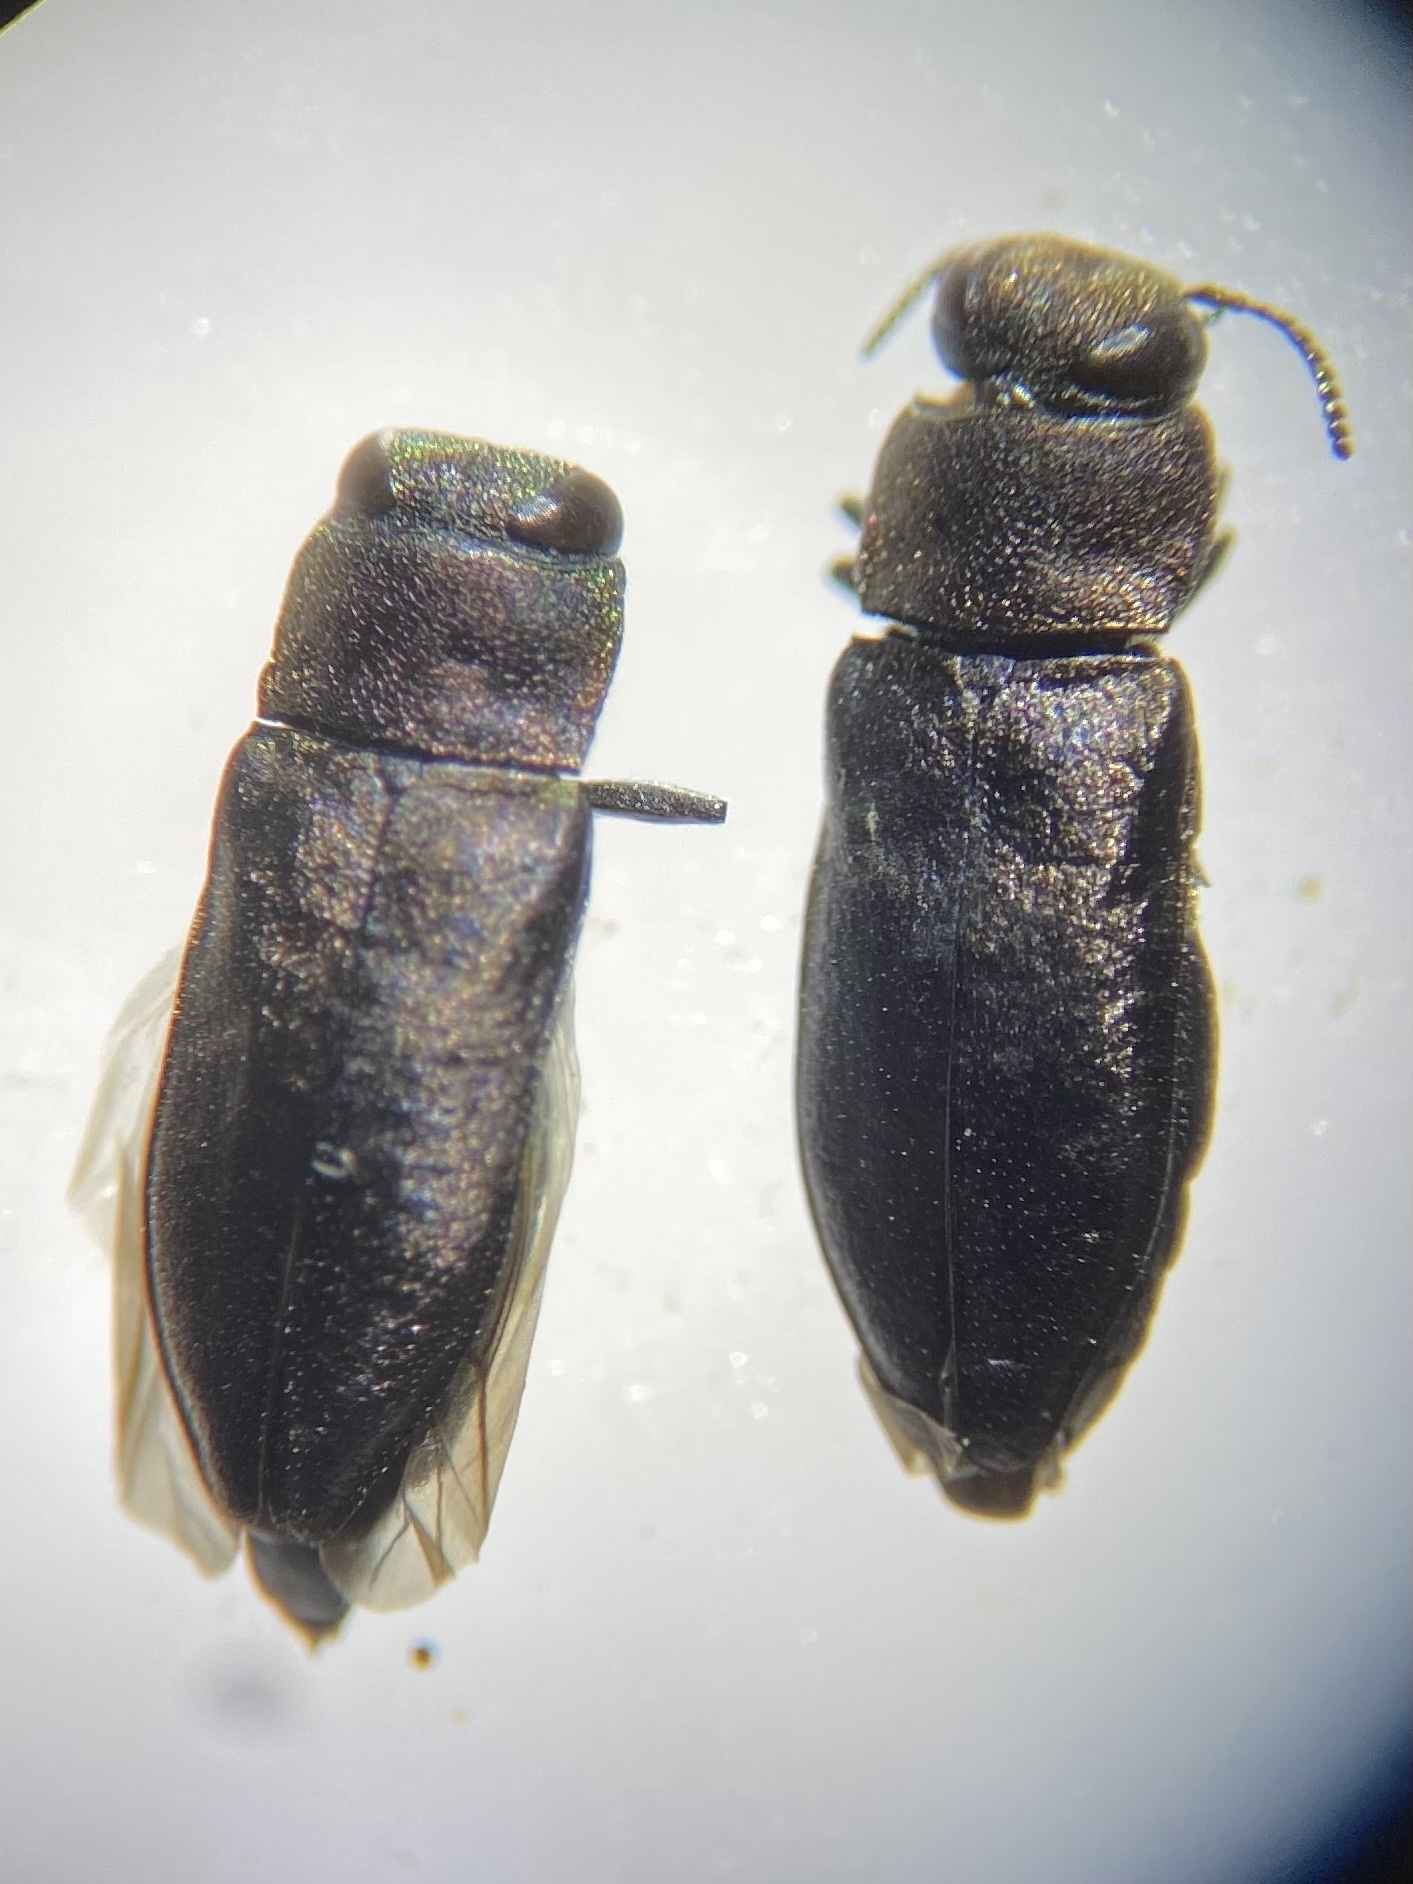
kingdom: Animalia
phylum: Arthropoda
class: Insecta
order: Coleoptera
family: Buprestidae
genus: Anthaxia
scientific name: Anthaxia viridifrons
